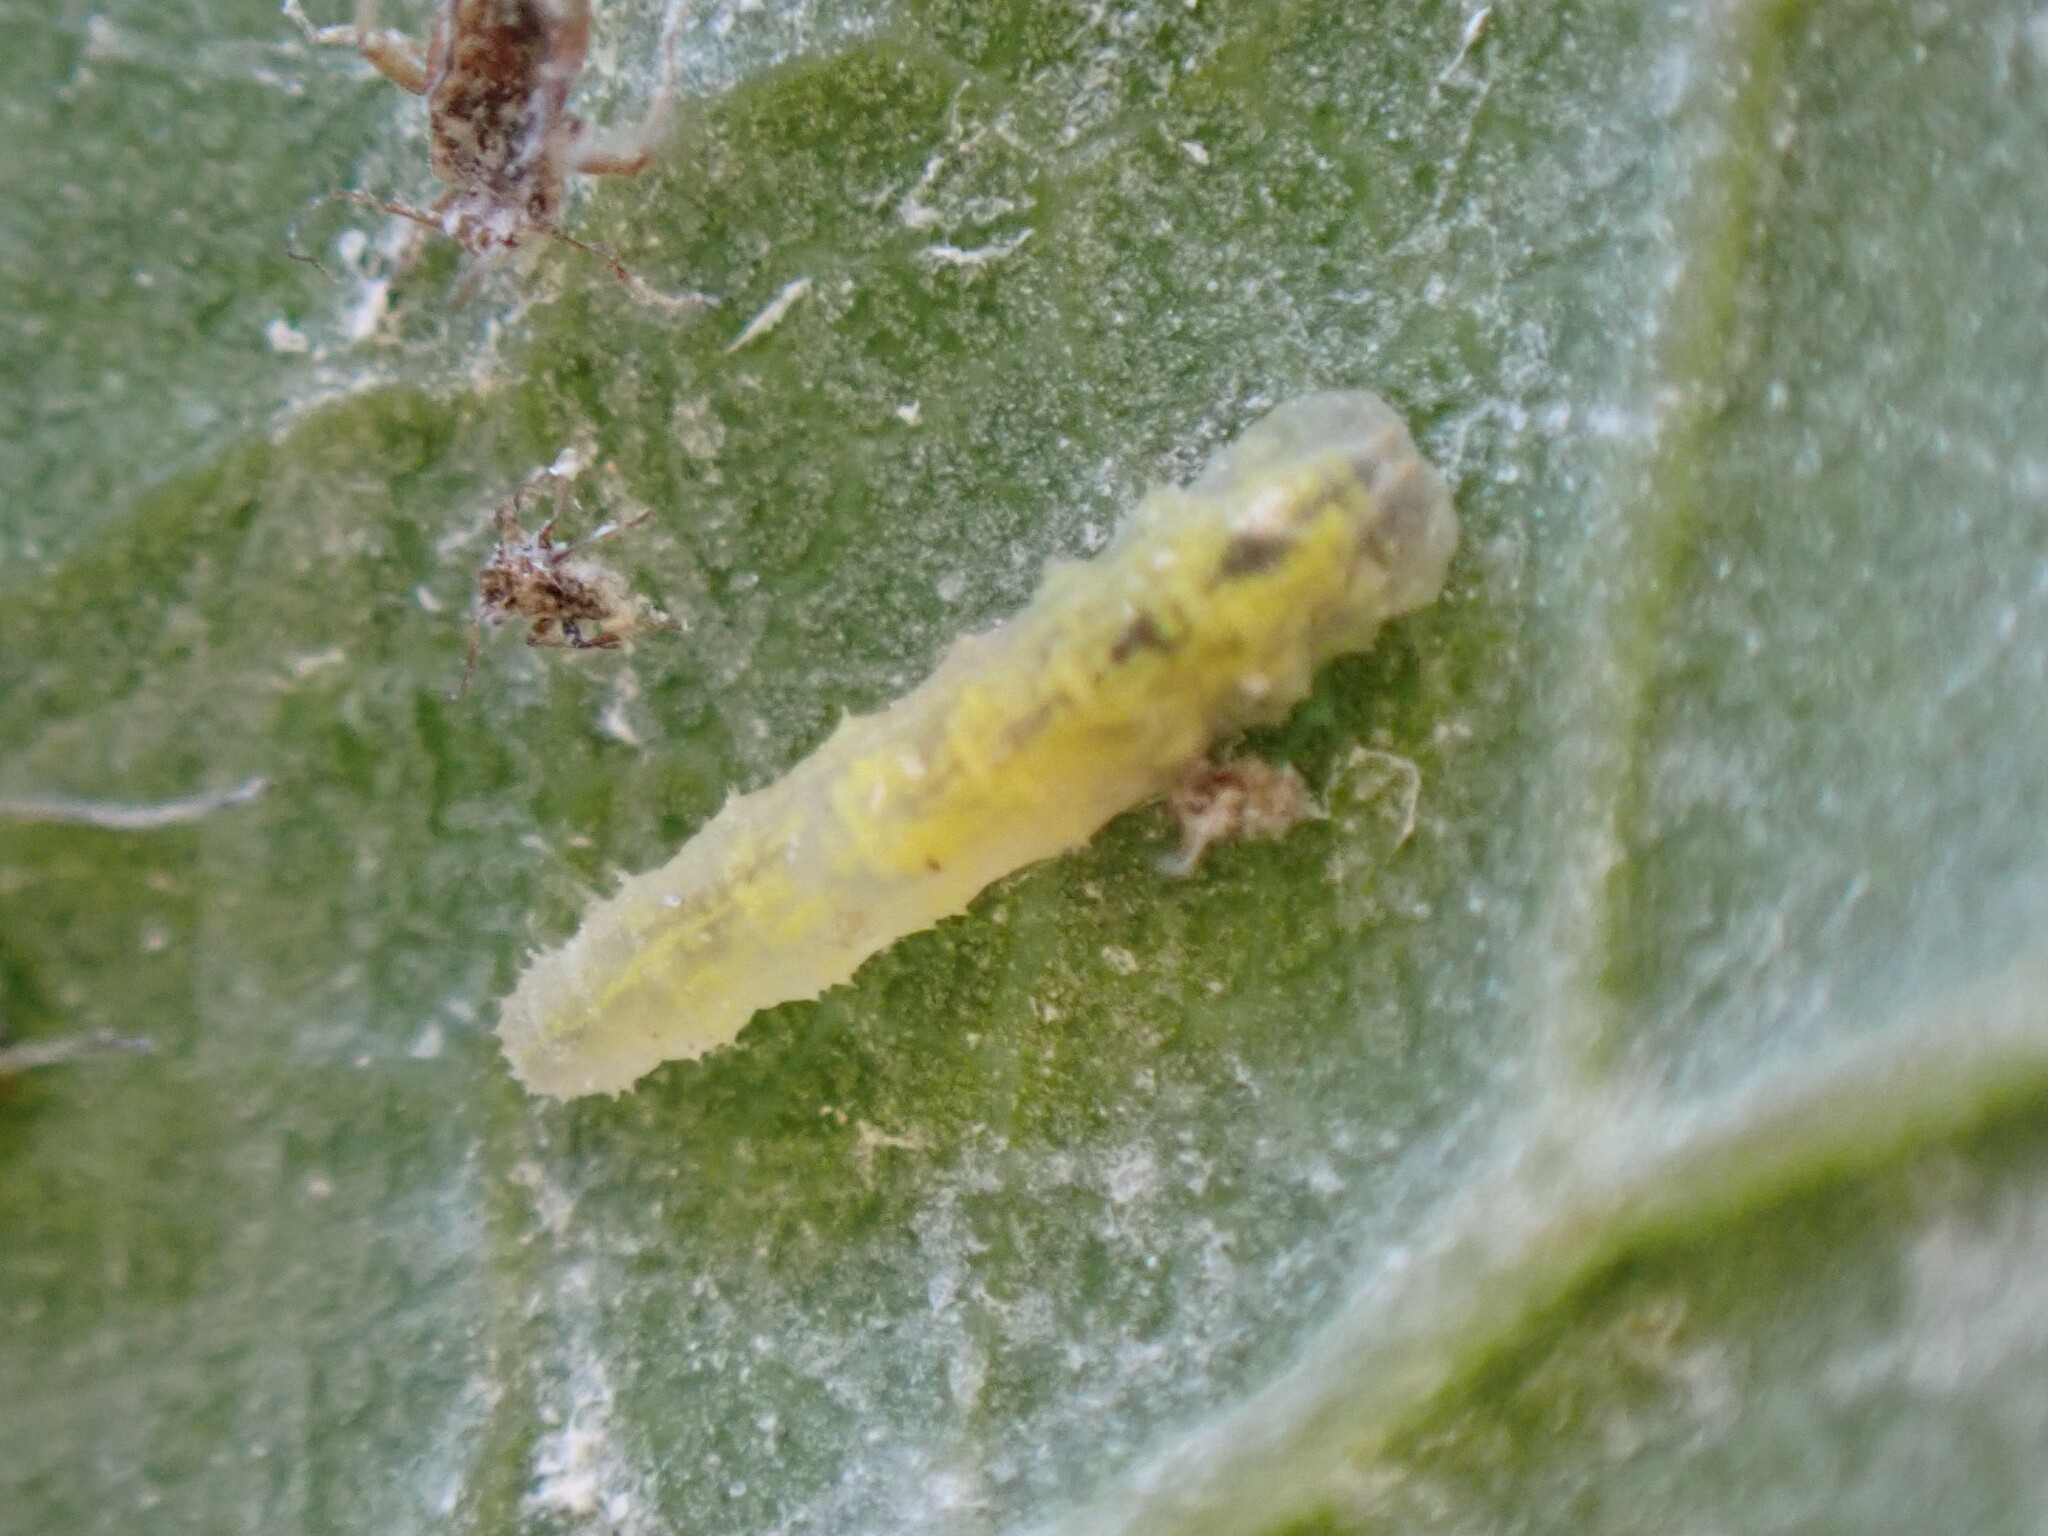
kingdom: Animalia
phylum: Arthropoda
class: Insecta
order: Diptera
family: Syrphidae
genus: Syrphus
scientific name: Syrphus
